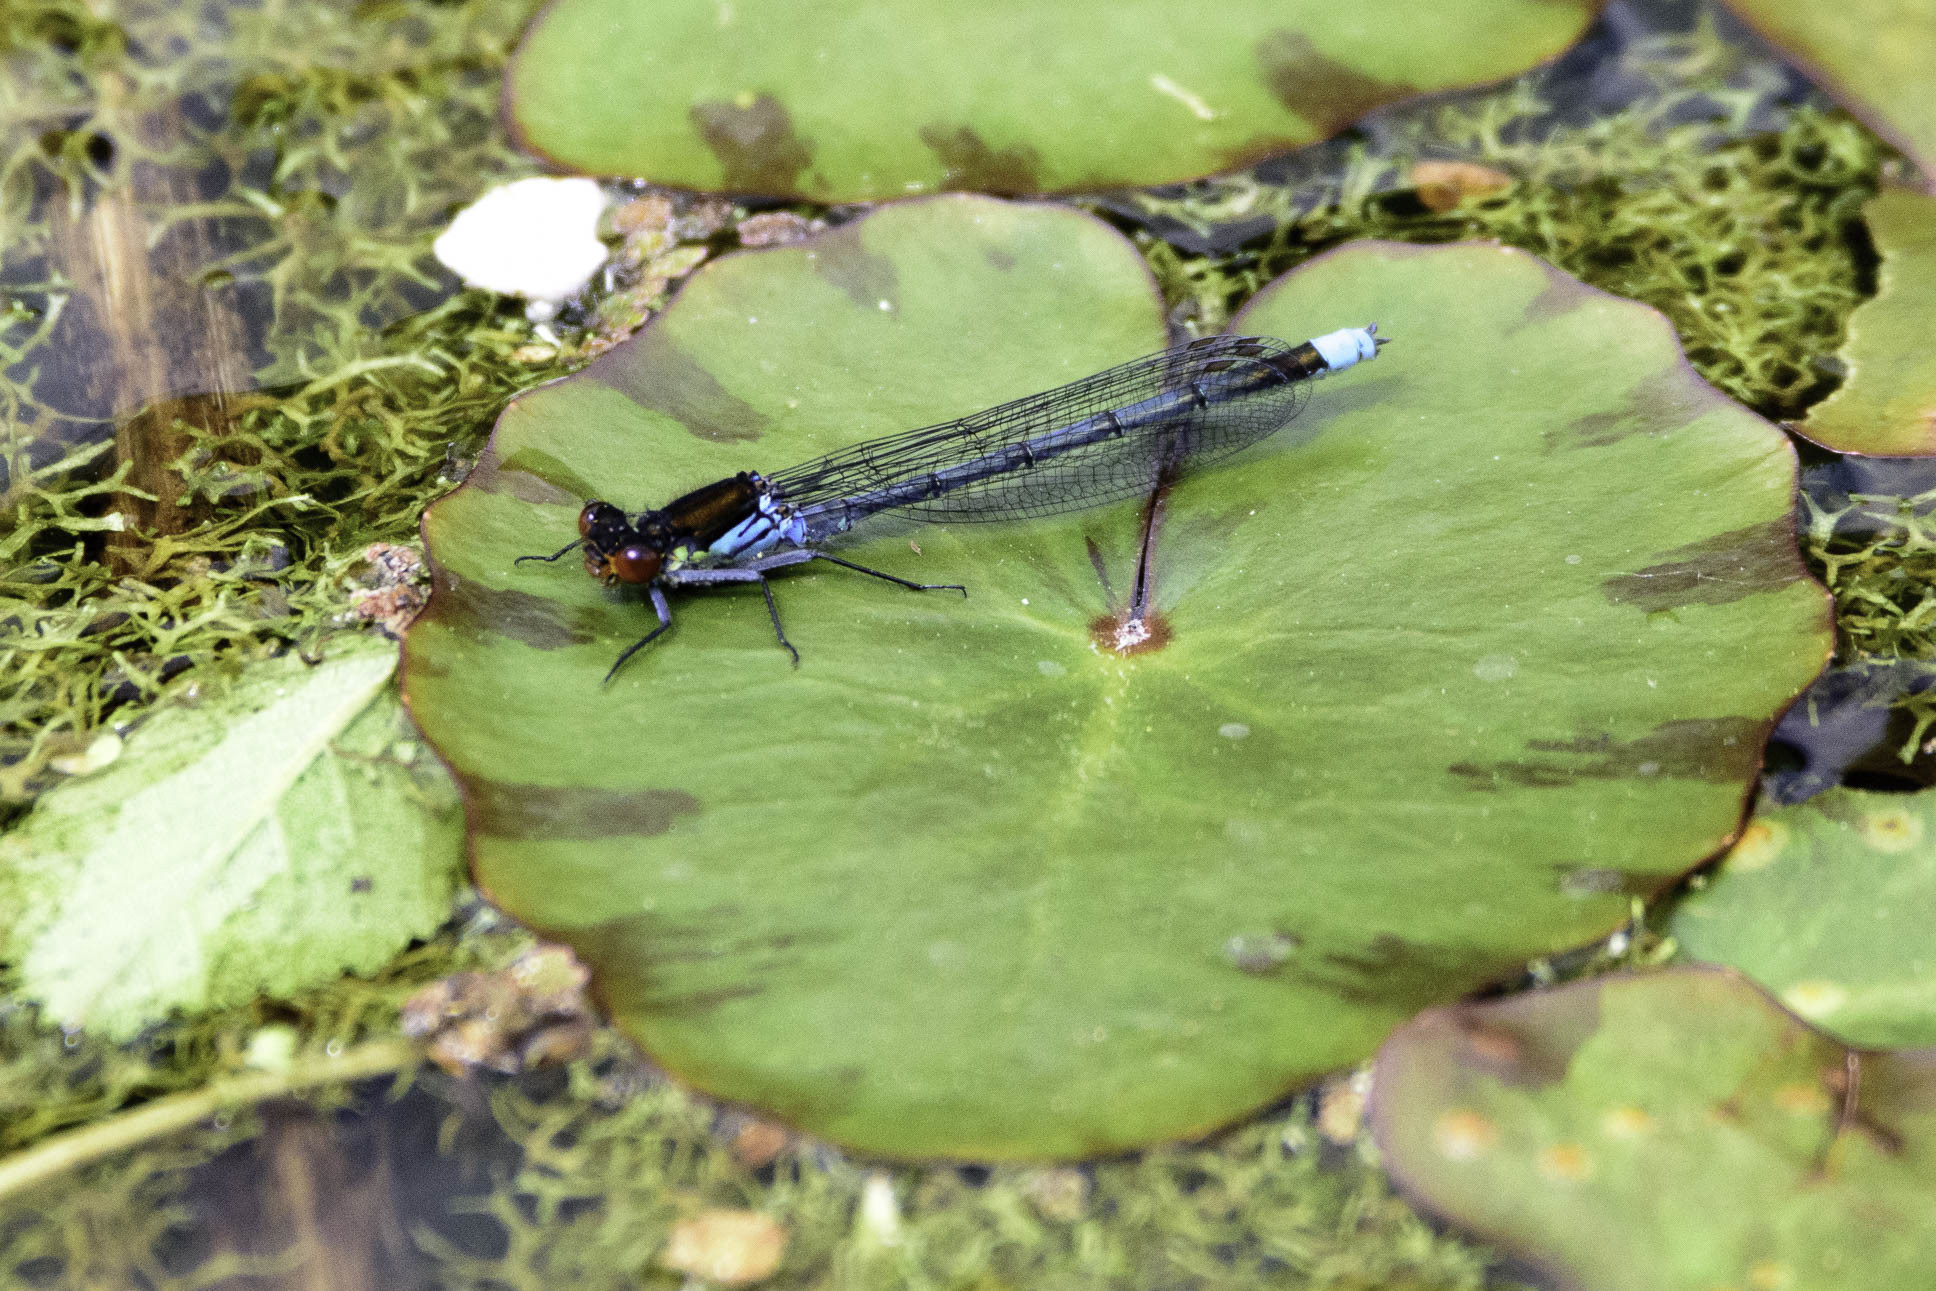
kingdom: Animalia
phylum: Arthropoda
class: Insecta
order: Odonata
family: Coenagrionidae
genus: Erythromma
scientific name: Erythromma najas
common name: Red-eyed damselfly
